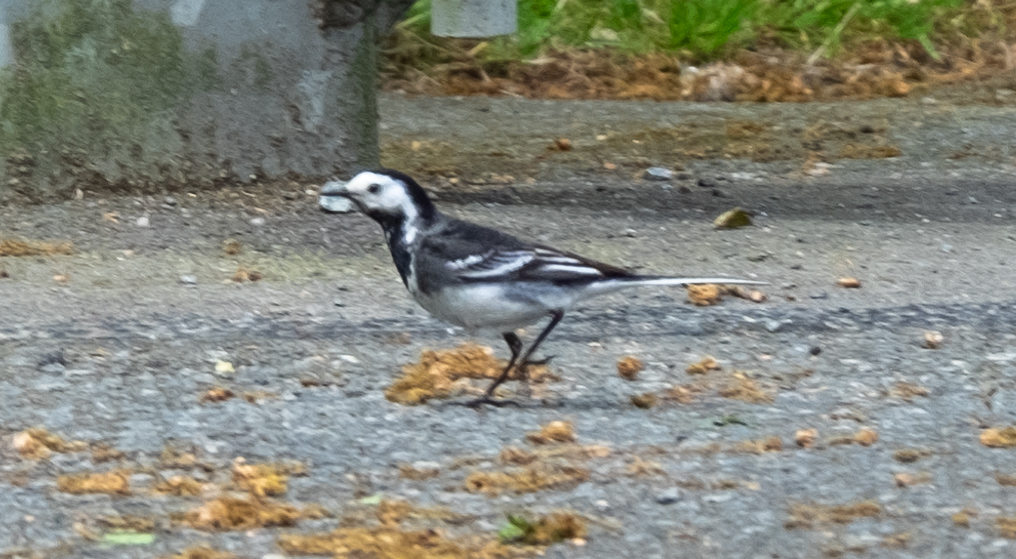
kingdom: Animalia
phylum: Chordata
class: Aves
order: Passeriformes
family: Motacillidae
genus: Motacilla
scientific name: Motacilla alba
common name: White wagtail
